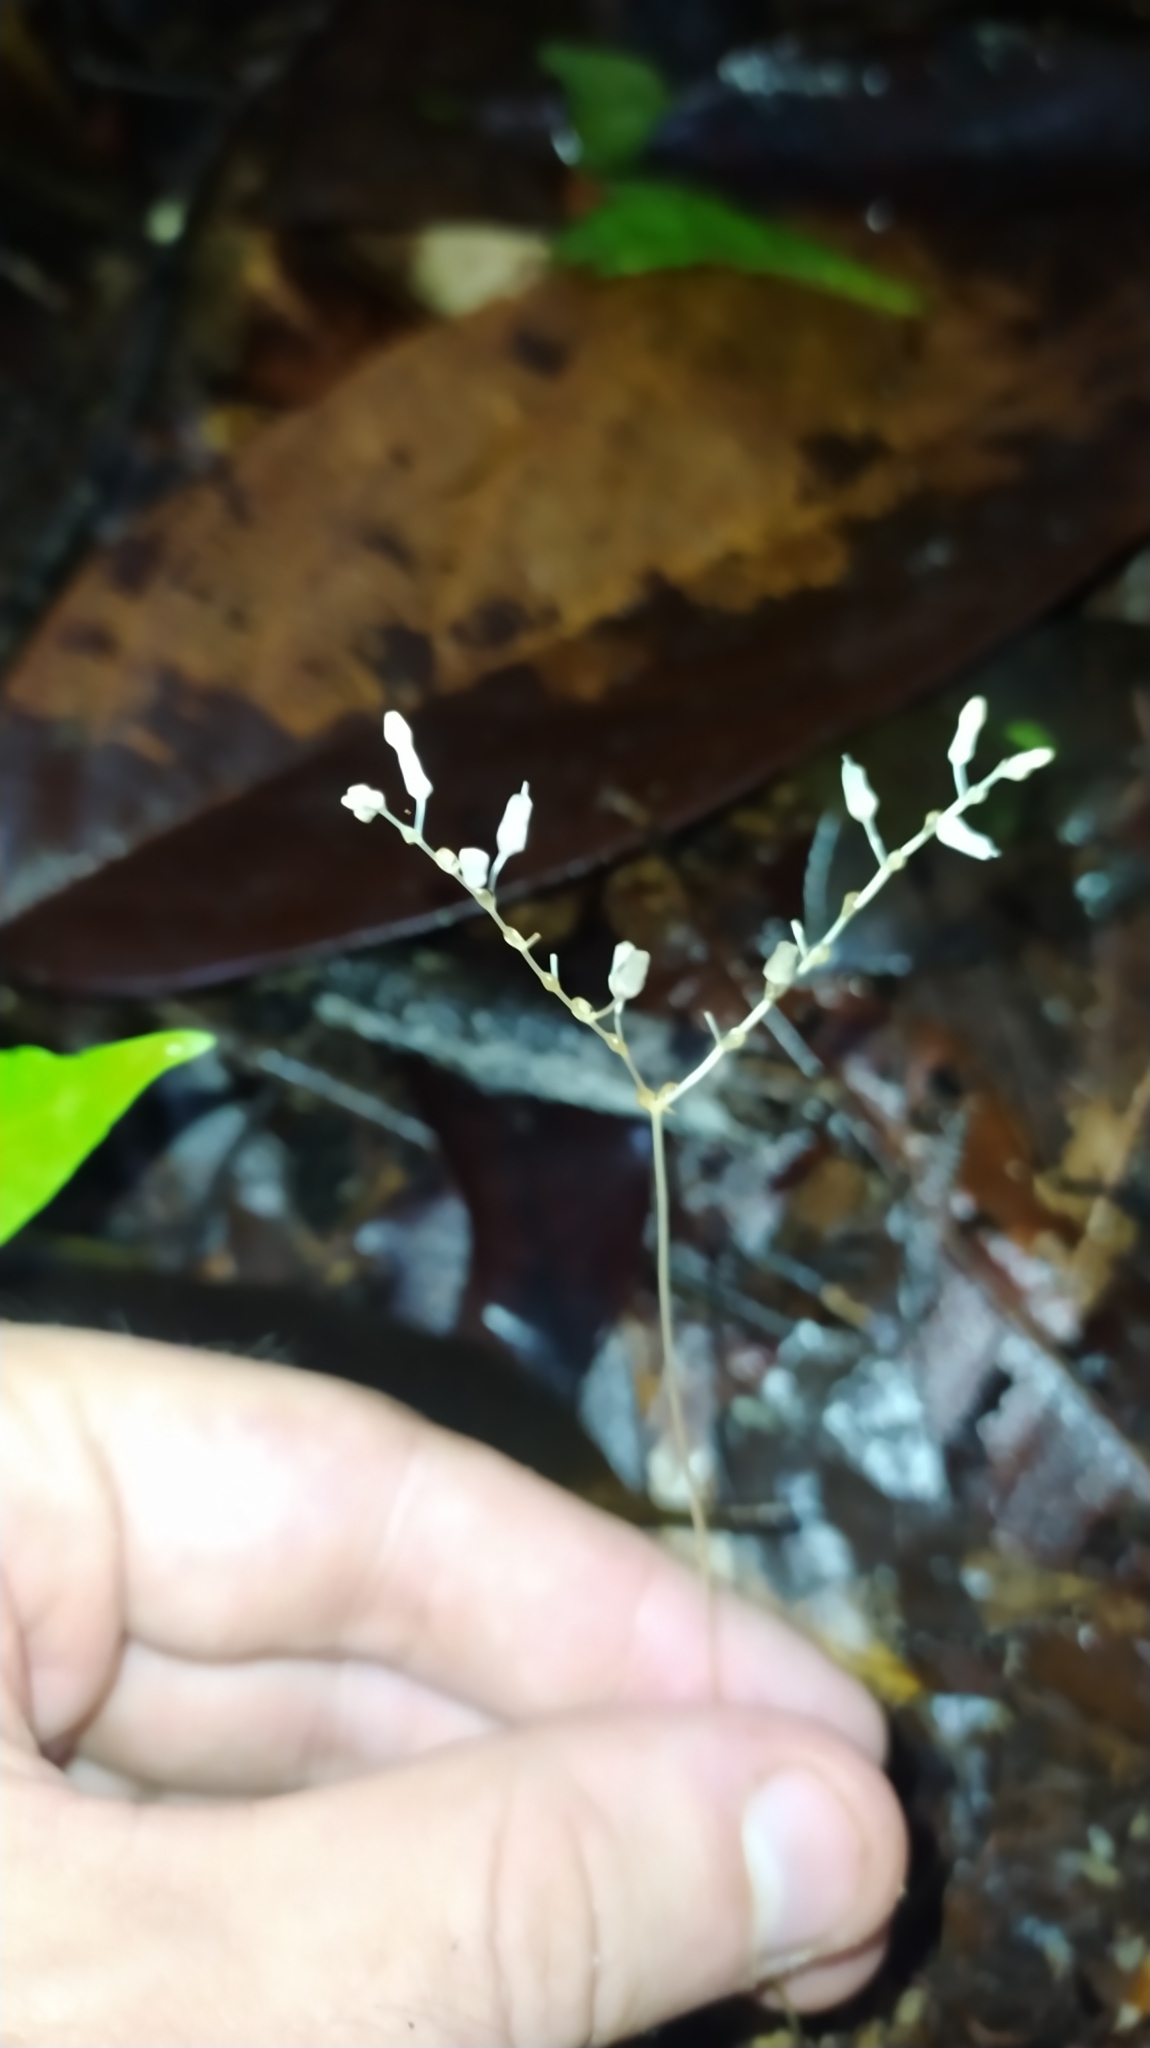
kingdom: Plantae
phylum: Tracheophyta
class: Liliopsida
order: Dioscoreales
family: Burmanniaceae
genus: Gymnosiphon
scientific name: Gymnosiphon breviflorus
